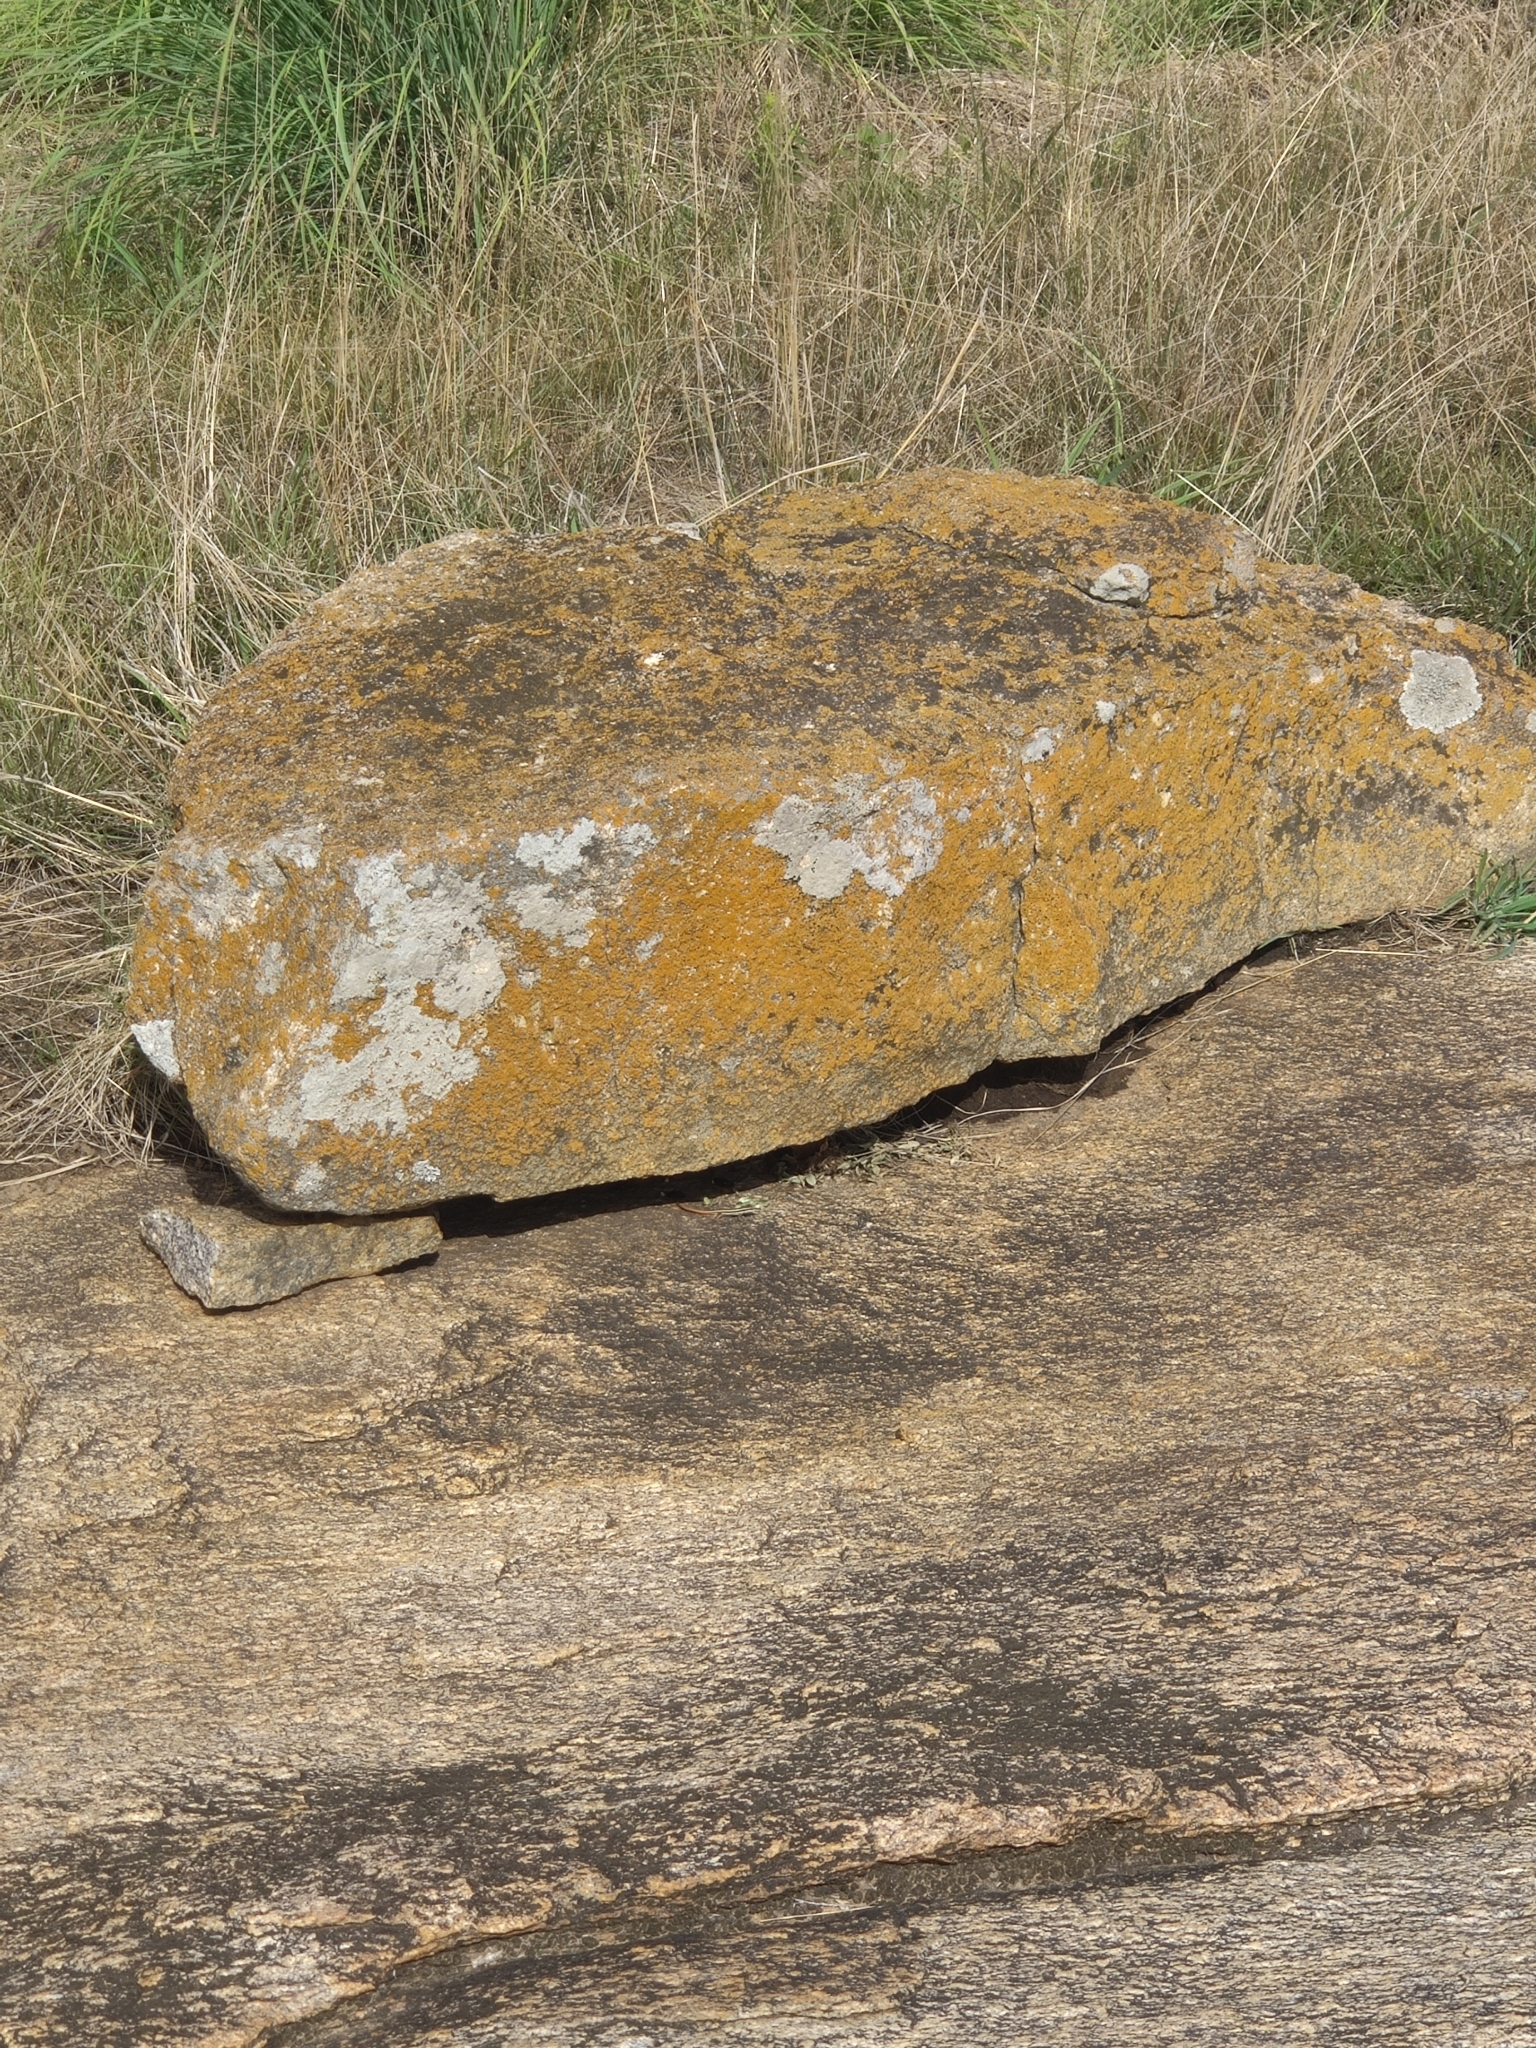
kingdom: Animalia
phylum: Chordata
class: Squamata
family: Lacertidae
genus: Ophisops
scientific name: Ophisops leschenaultii
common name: Leschenault's cabrita
